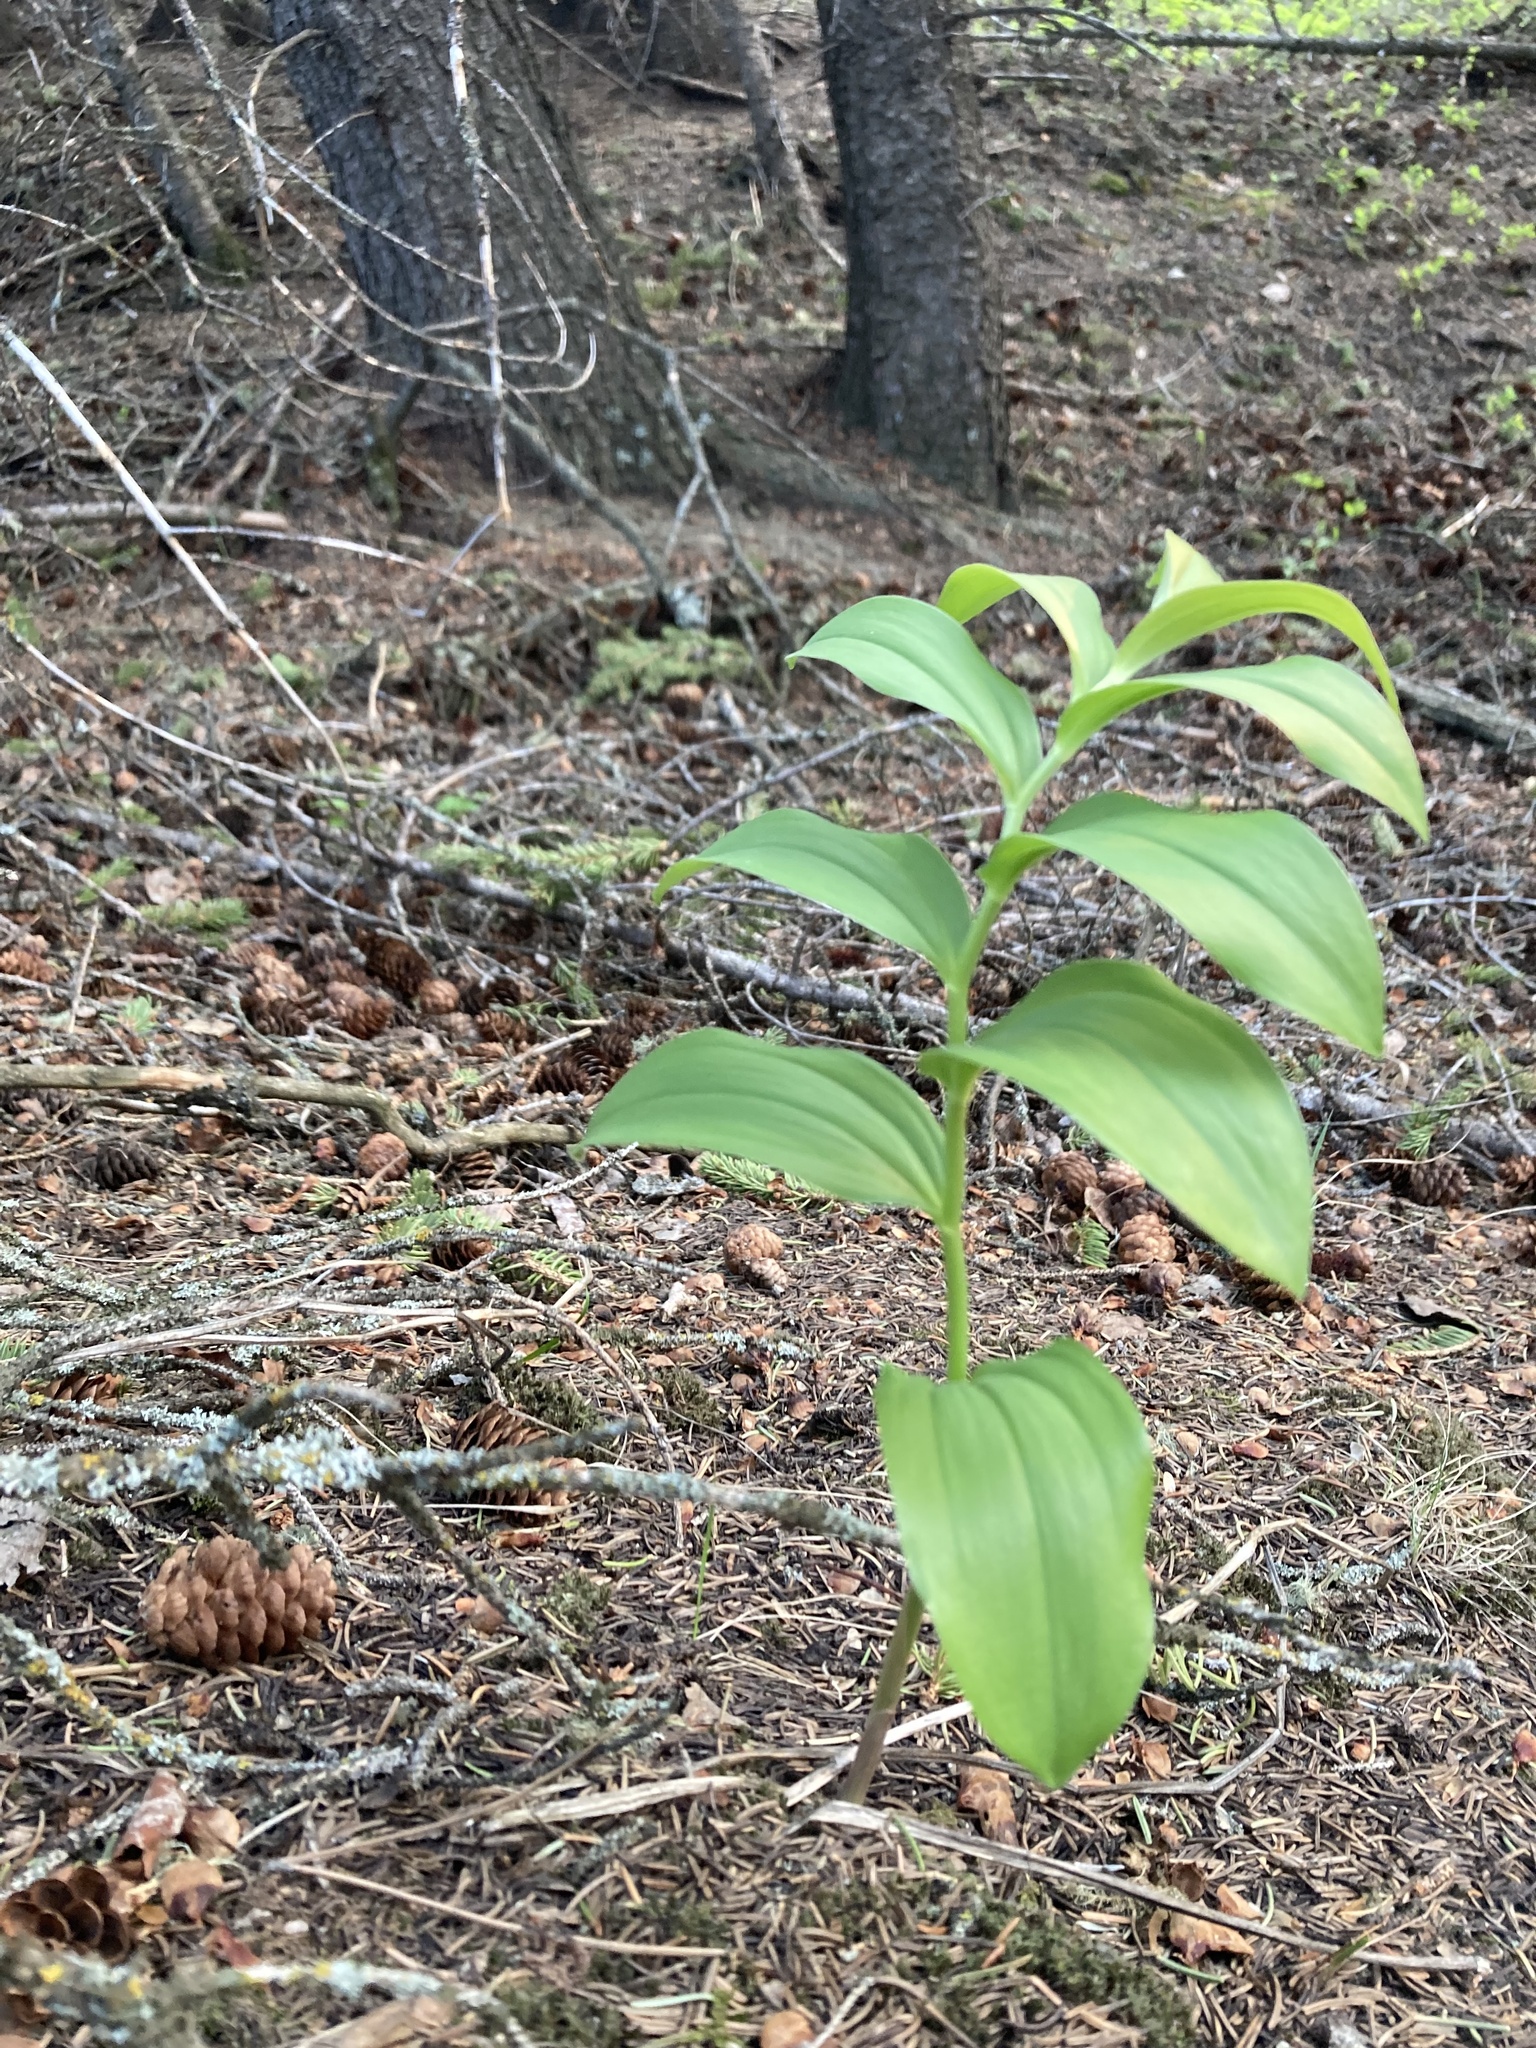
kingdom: Plantae
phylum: Tracheophyta
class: Liliopsida
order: Asparagales
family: Asparagaceae
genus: Maianthemum
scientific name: Maianthemum racemosum
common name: False spikenard
